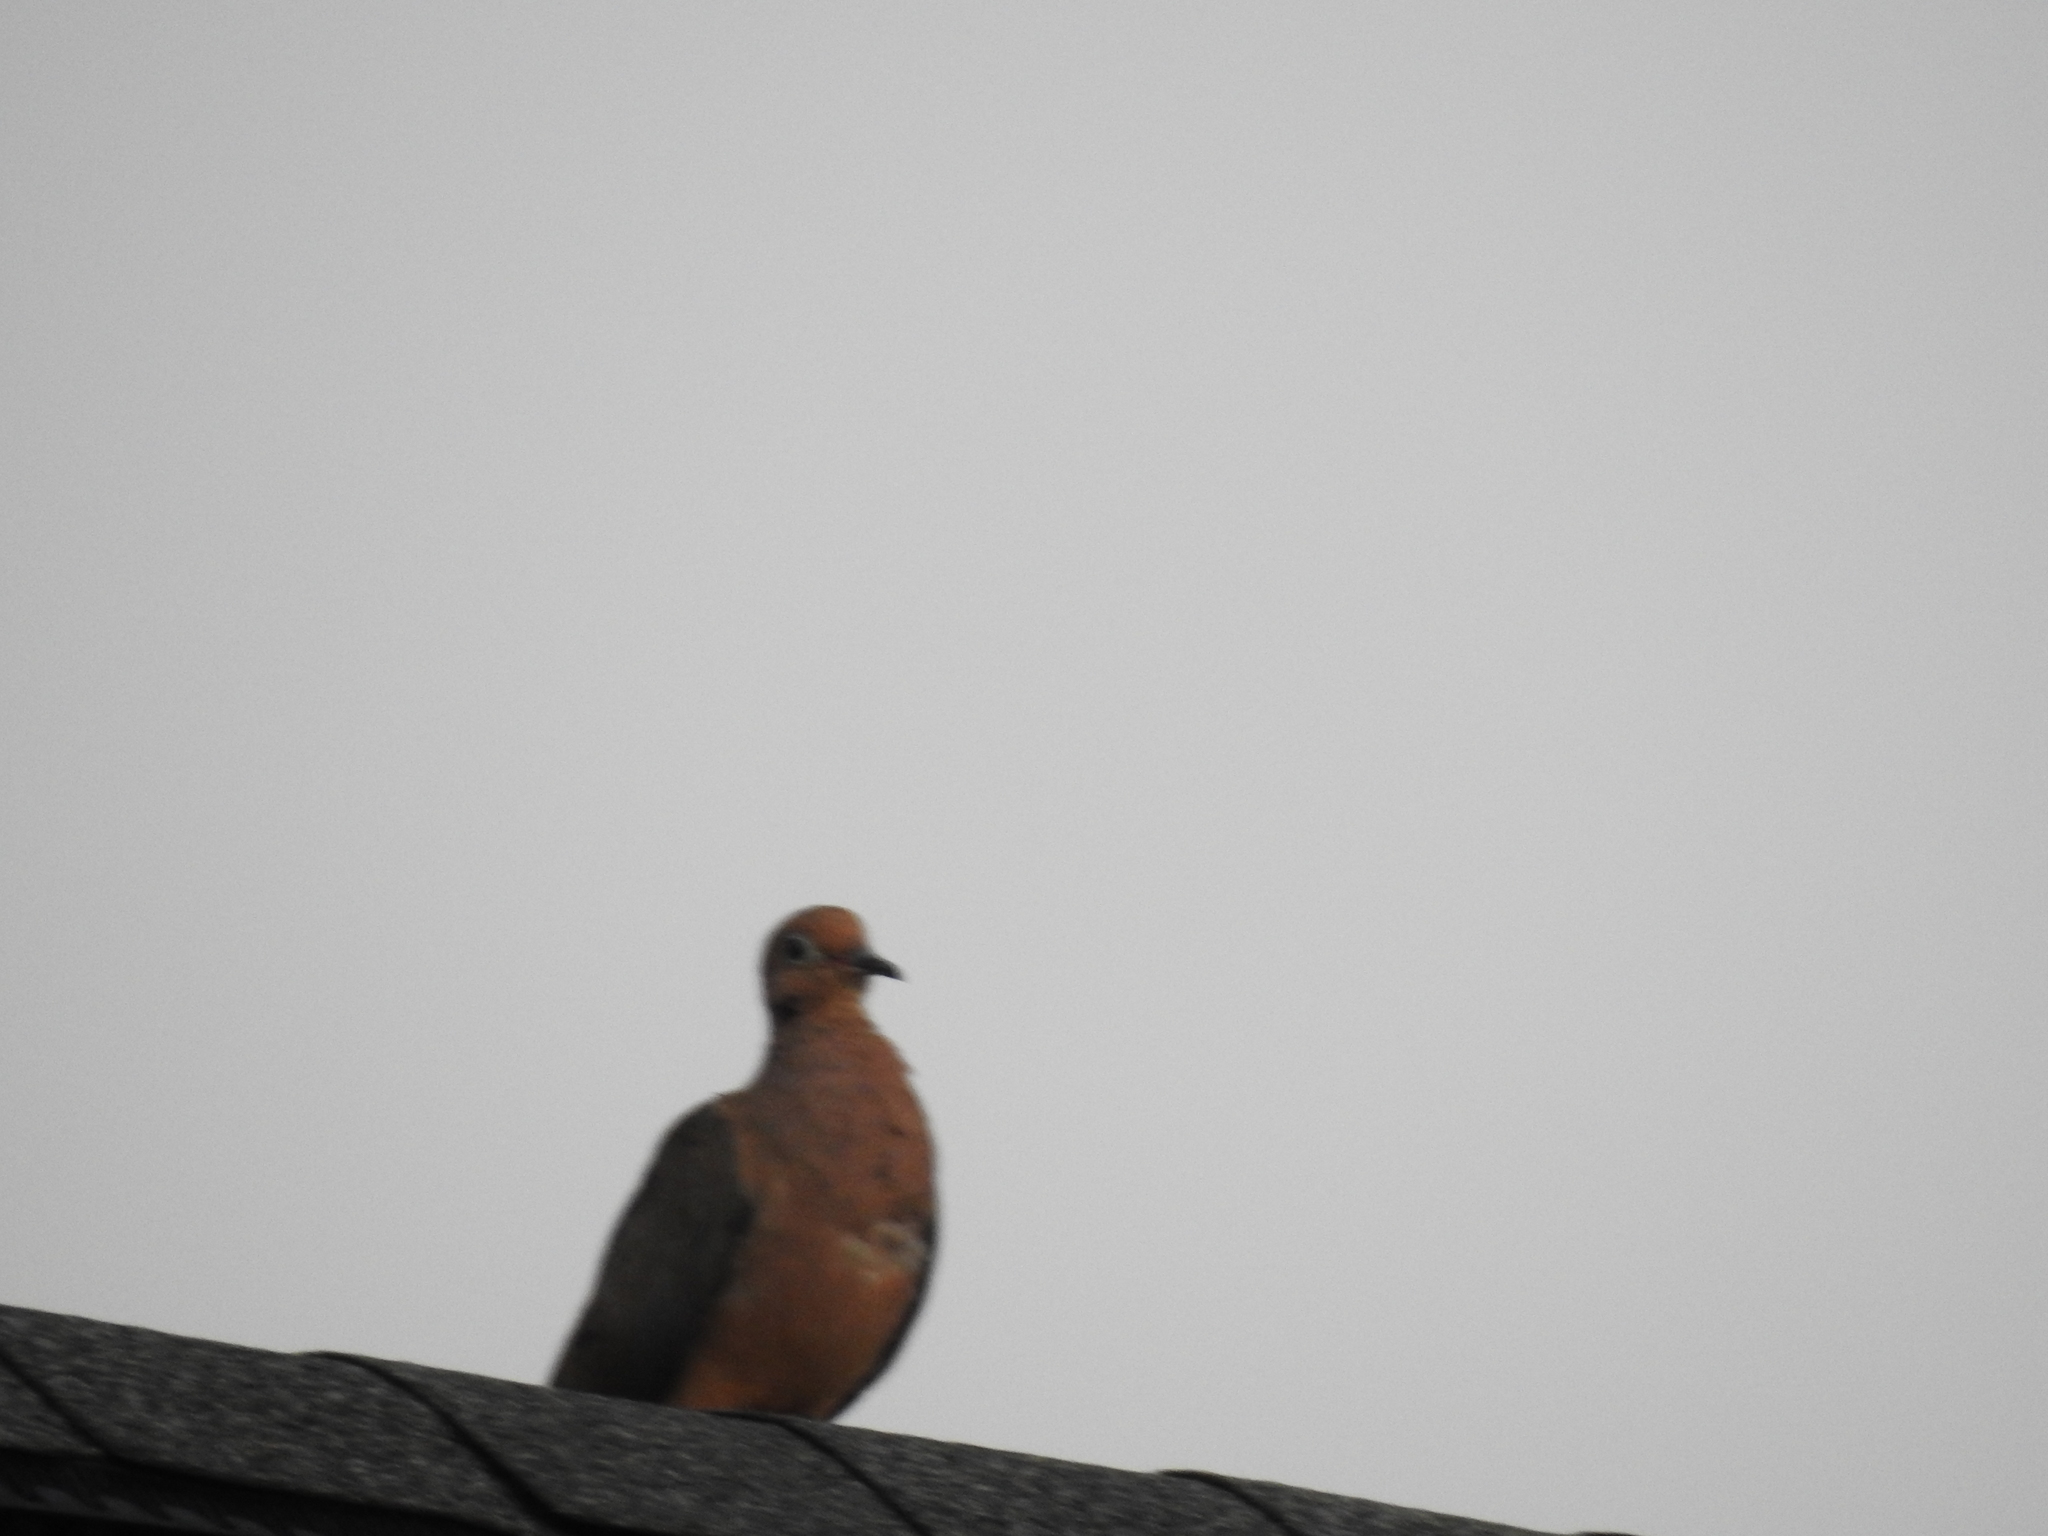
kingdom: Animalia
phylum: Chordata
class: Aves
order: Columbiformes
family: Columbidae
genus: Zenaida
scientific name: Zenaida macroura
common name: Mourning dove
